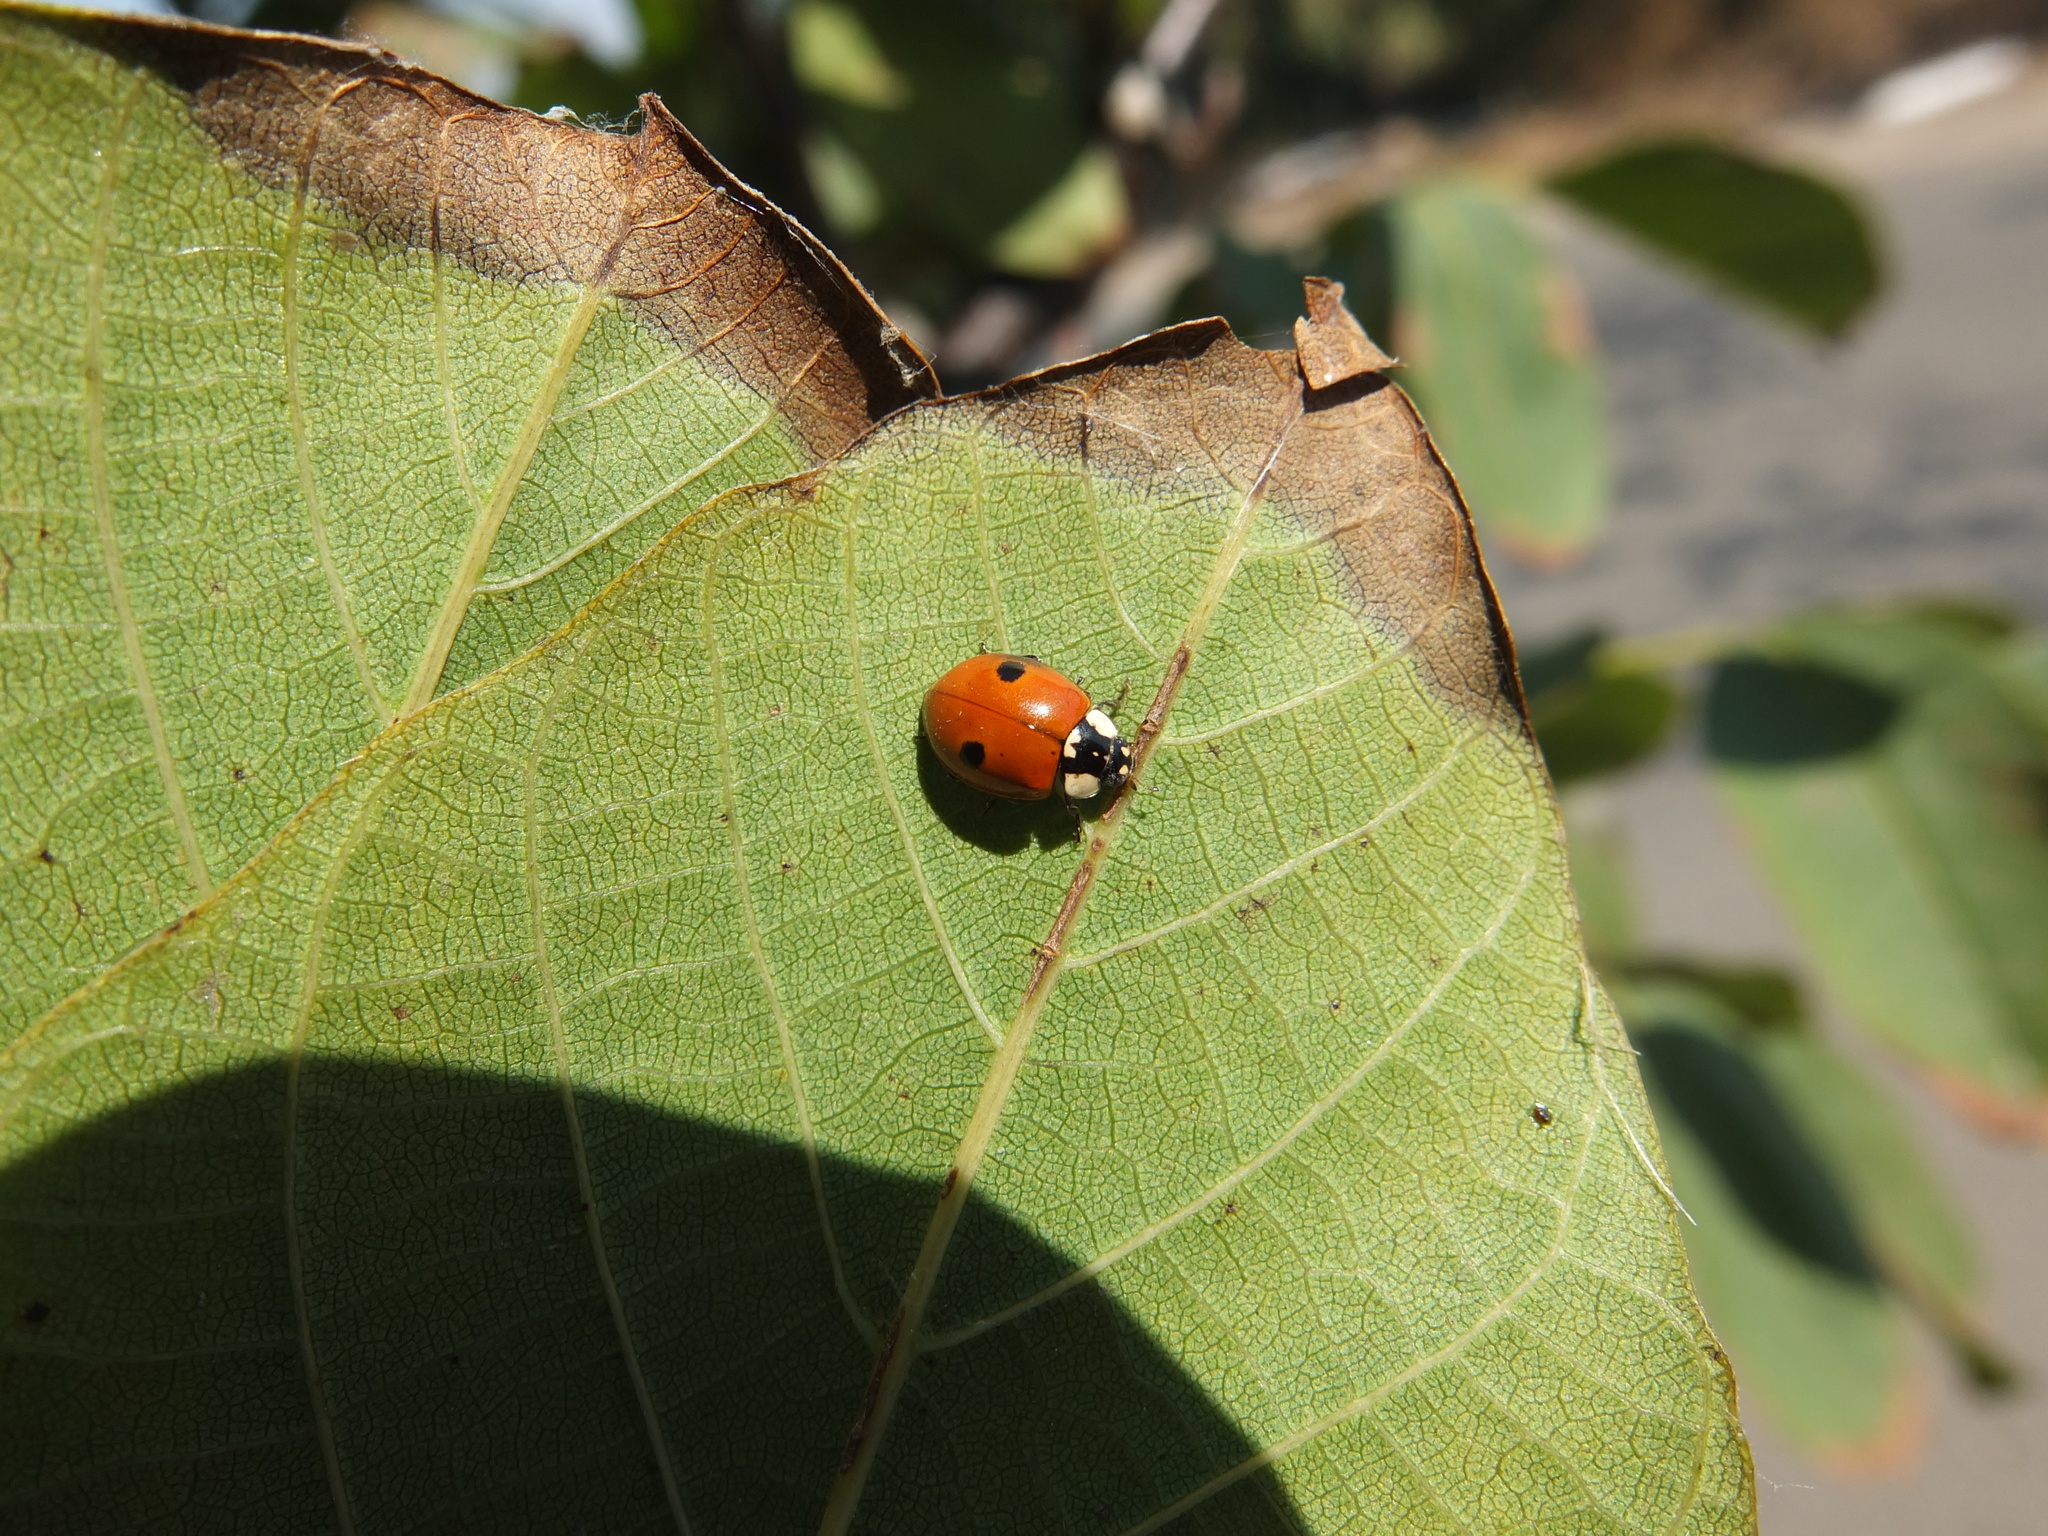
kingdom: Animalia
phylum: Arthropoda
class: Insecta
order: Coleoptera
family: Coccinellidae
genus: Adalia
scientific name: Adalia bipunctata
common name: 2-spot ladybird
